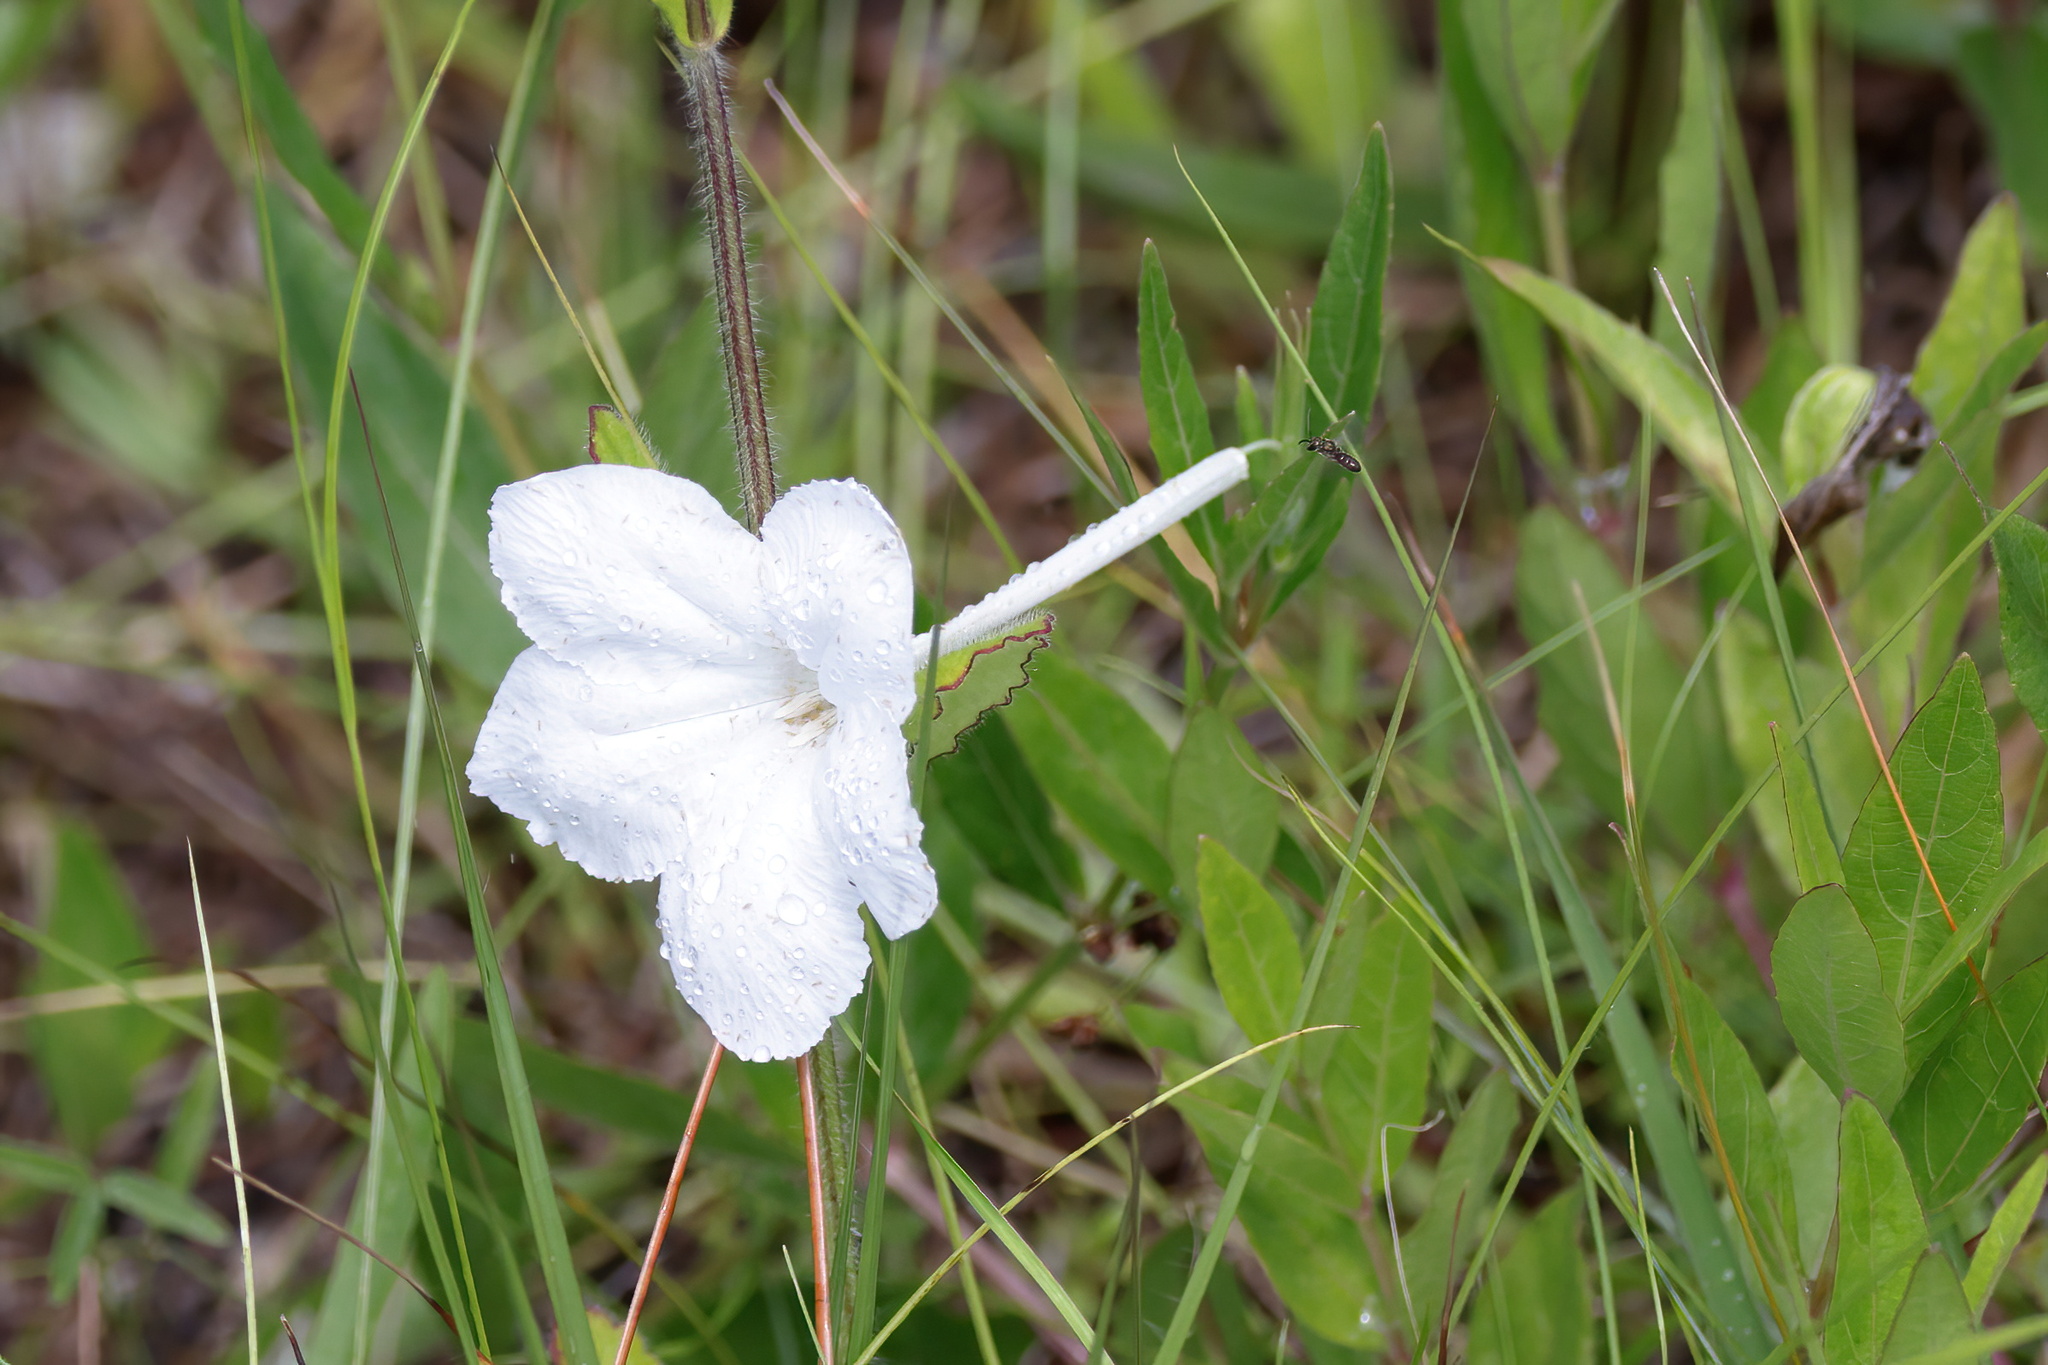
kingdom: Plantae
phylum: Tracheophyta
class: Magnoliopsida
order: Lamiales
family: Acanthaceae
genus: Ruellia
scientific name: Ruellia noctiflora
